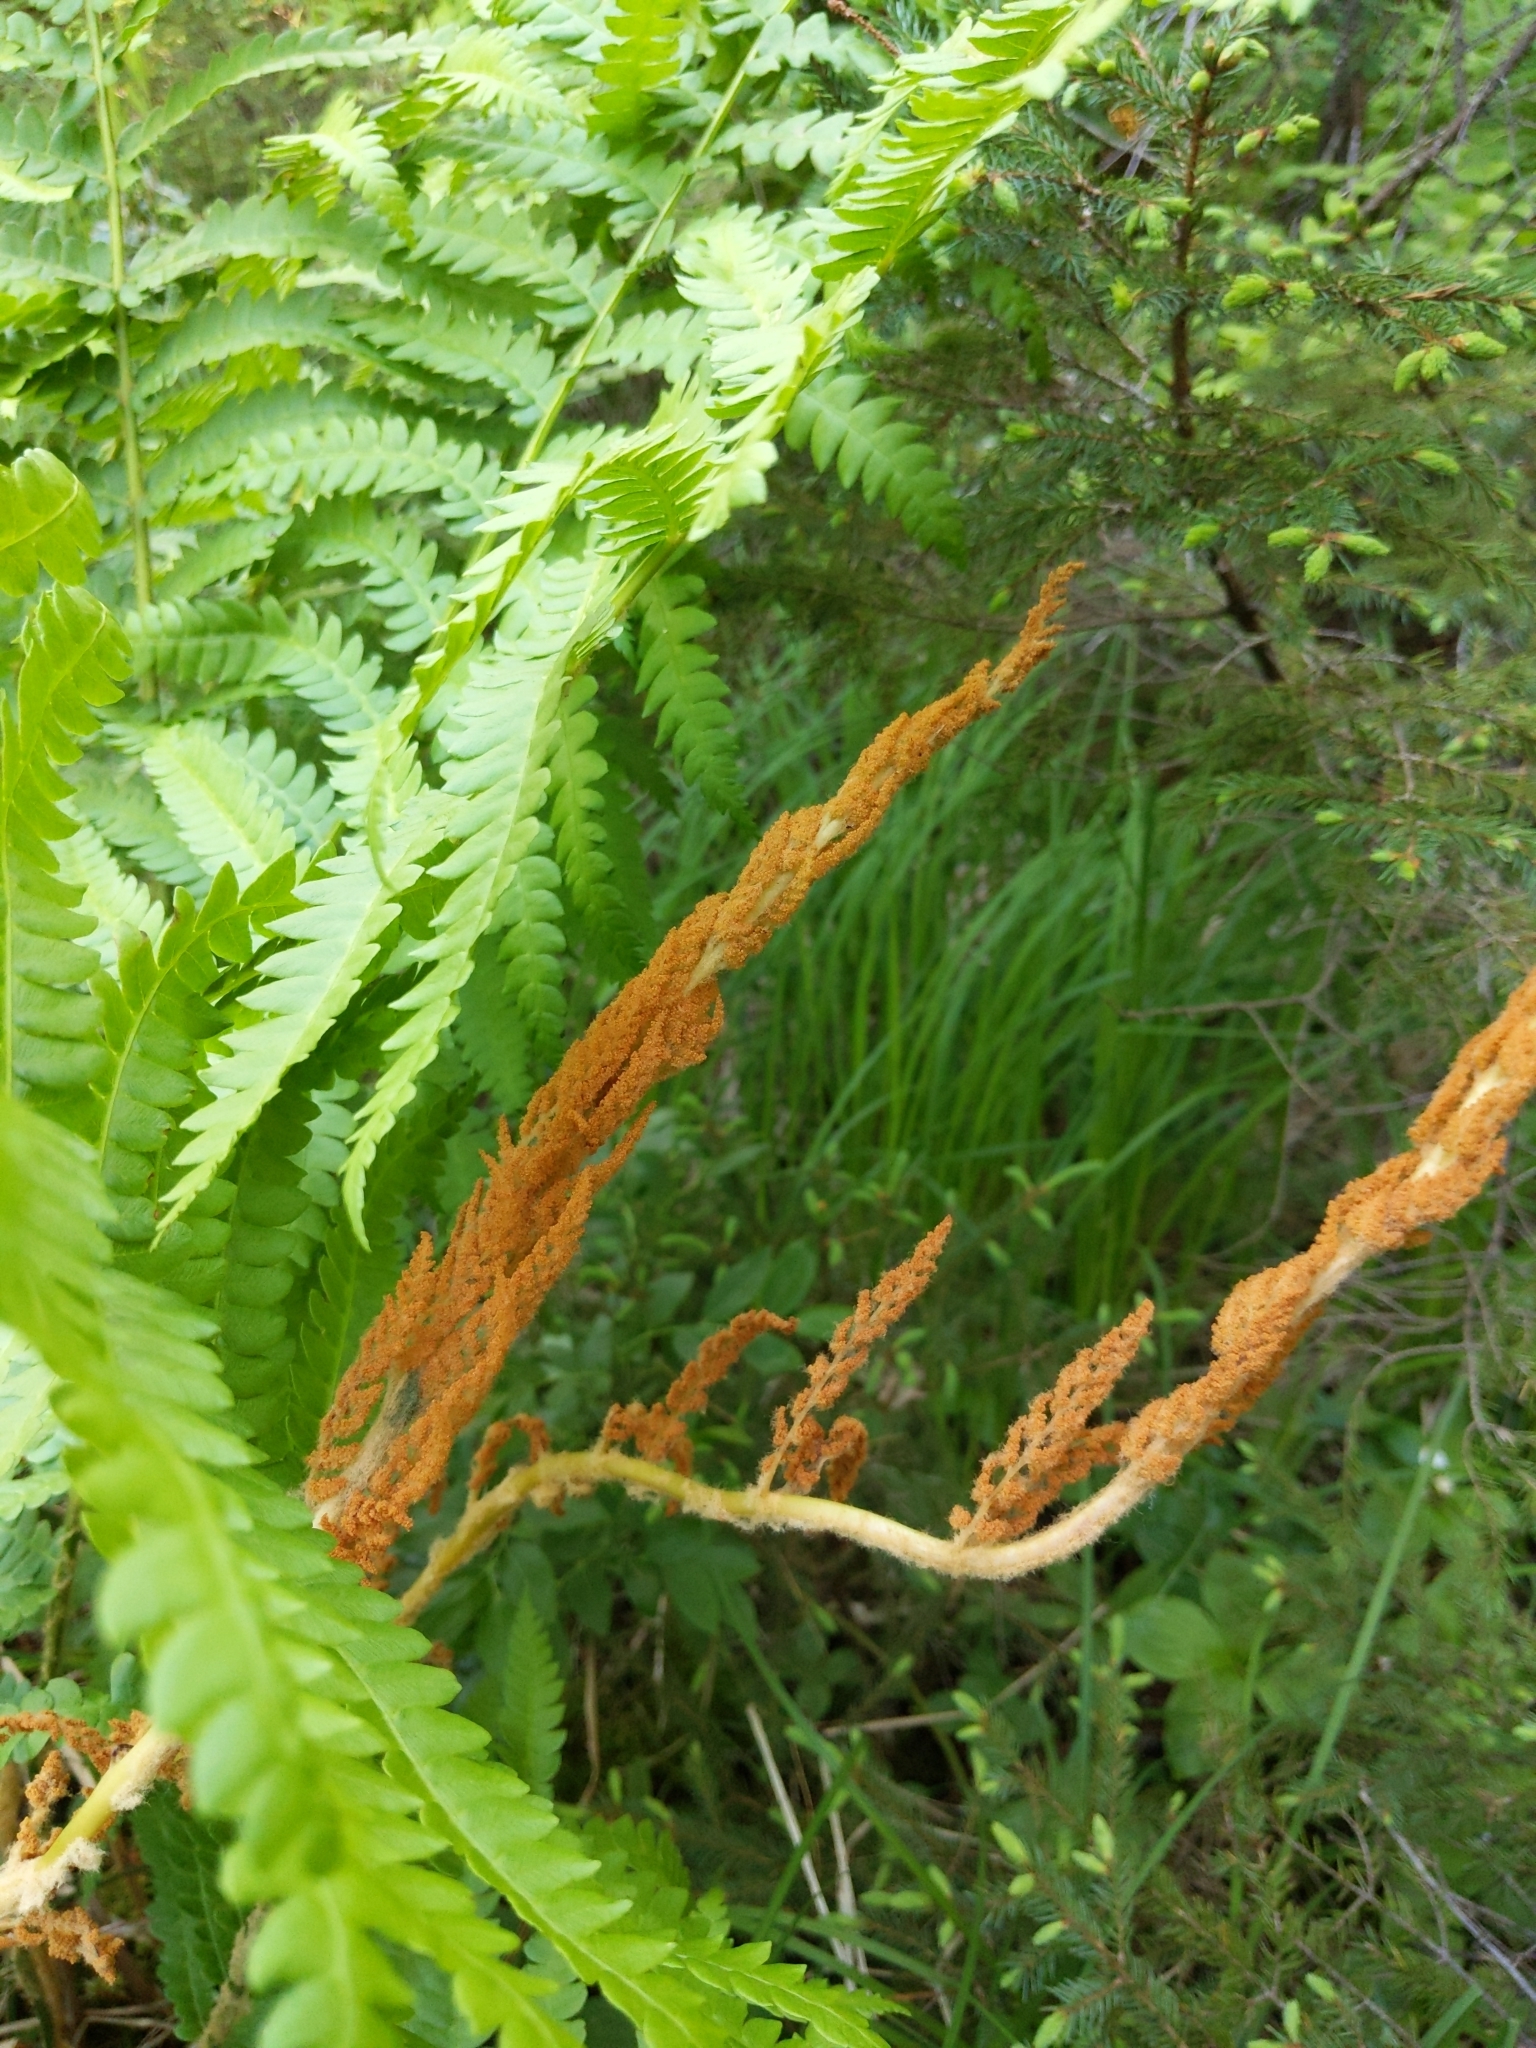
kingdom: Plantae
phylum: Tracheophyta
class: Polypodiopsida
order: Osmundales
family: Osmundaceae
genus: Osmundastrum
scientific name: Osmundastrum cinnamomeum
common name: Cinnamon fern
